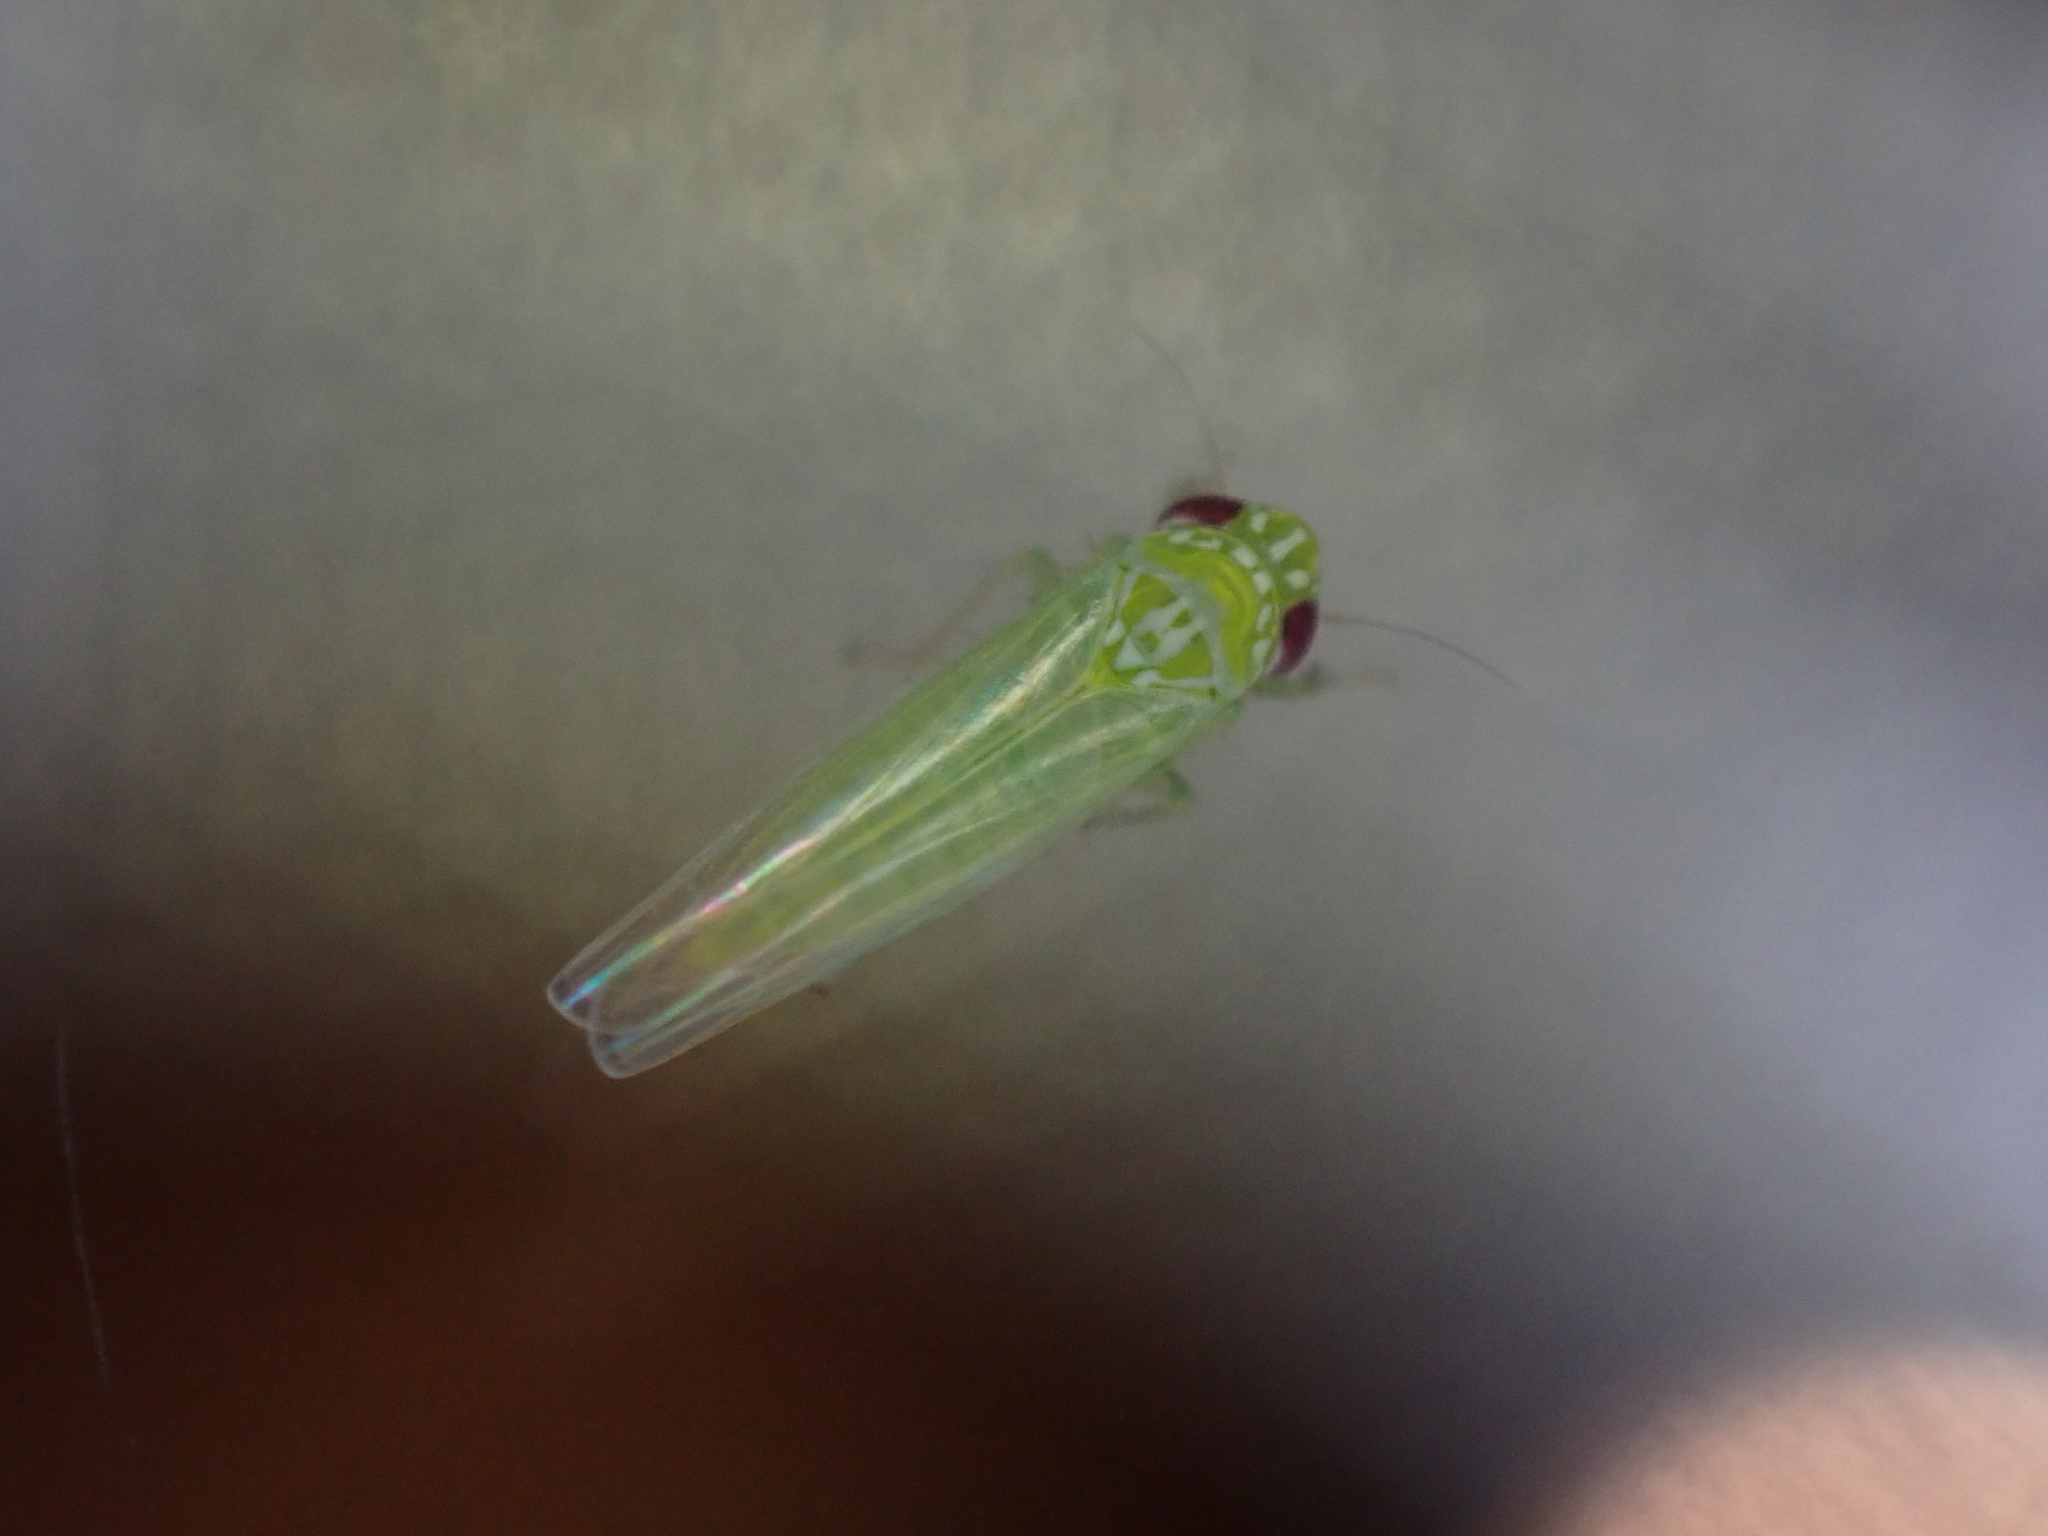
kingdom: Animalia
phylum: Arthropoda
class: Insecta
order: Hemiptera
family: Cicadellidae
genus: Empoasca
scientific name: Empoasca fabae
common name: Potato leafhopper
